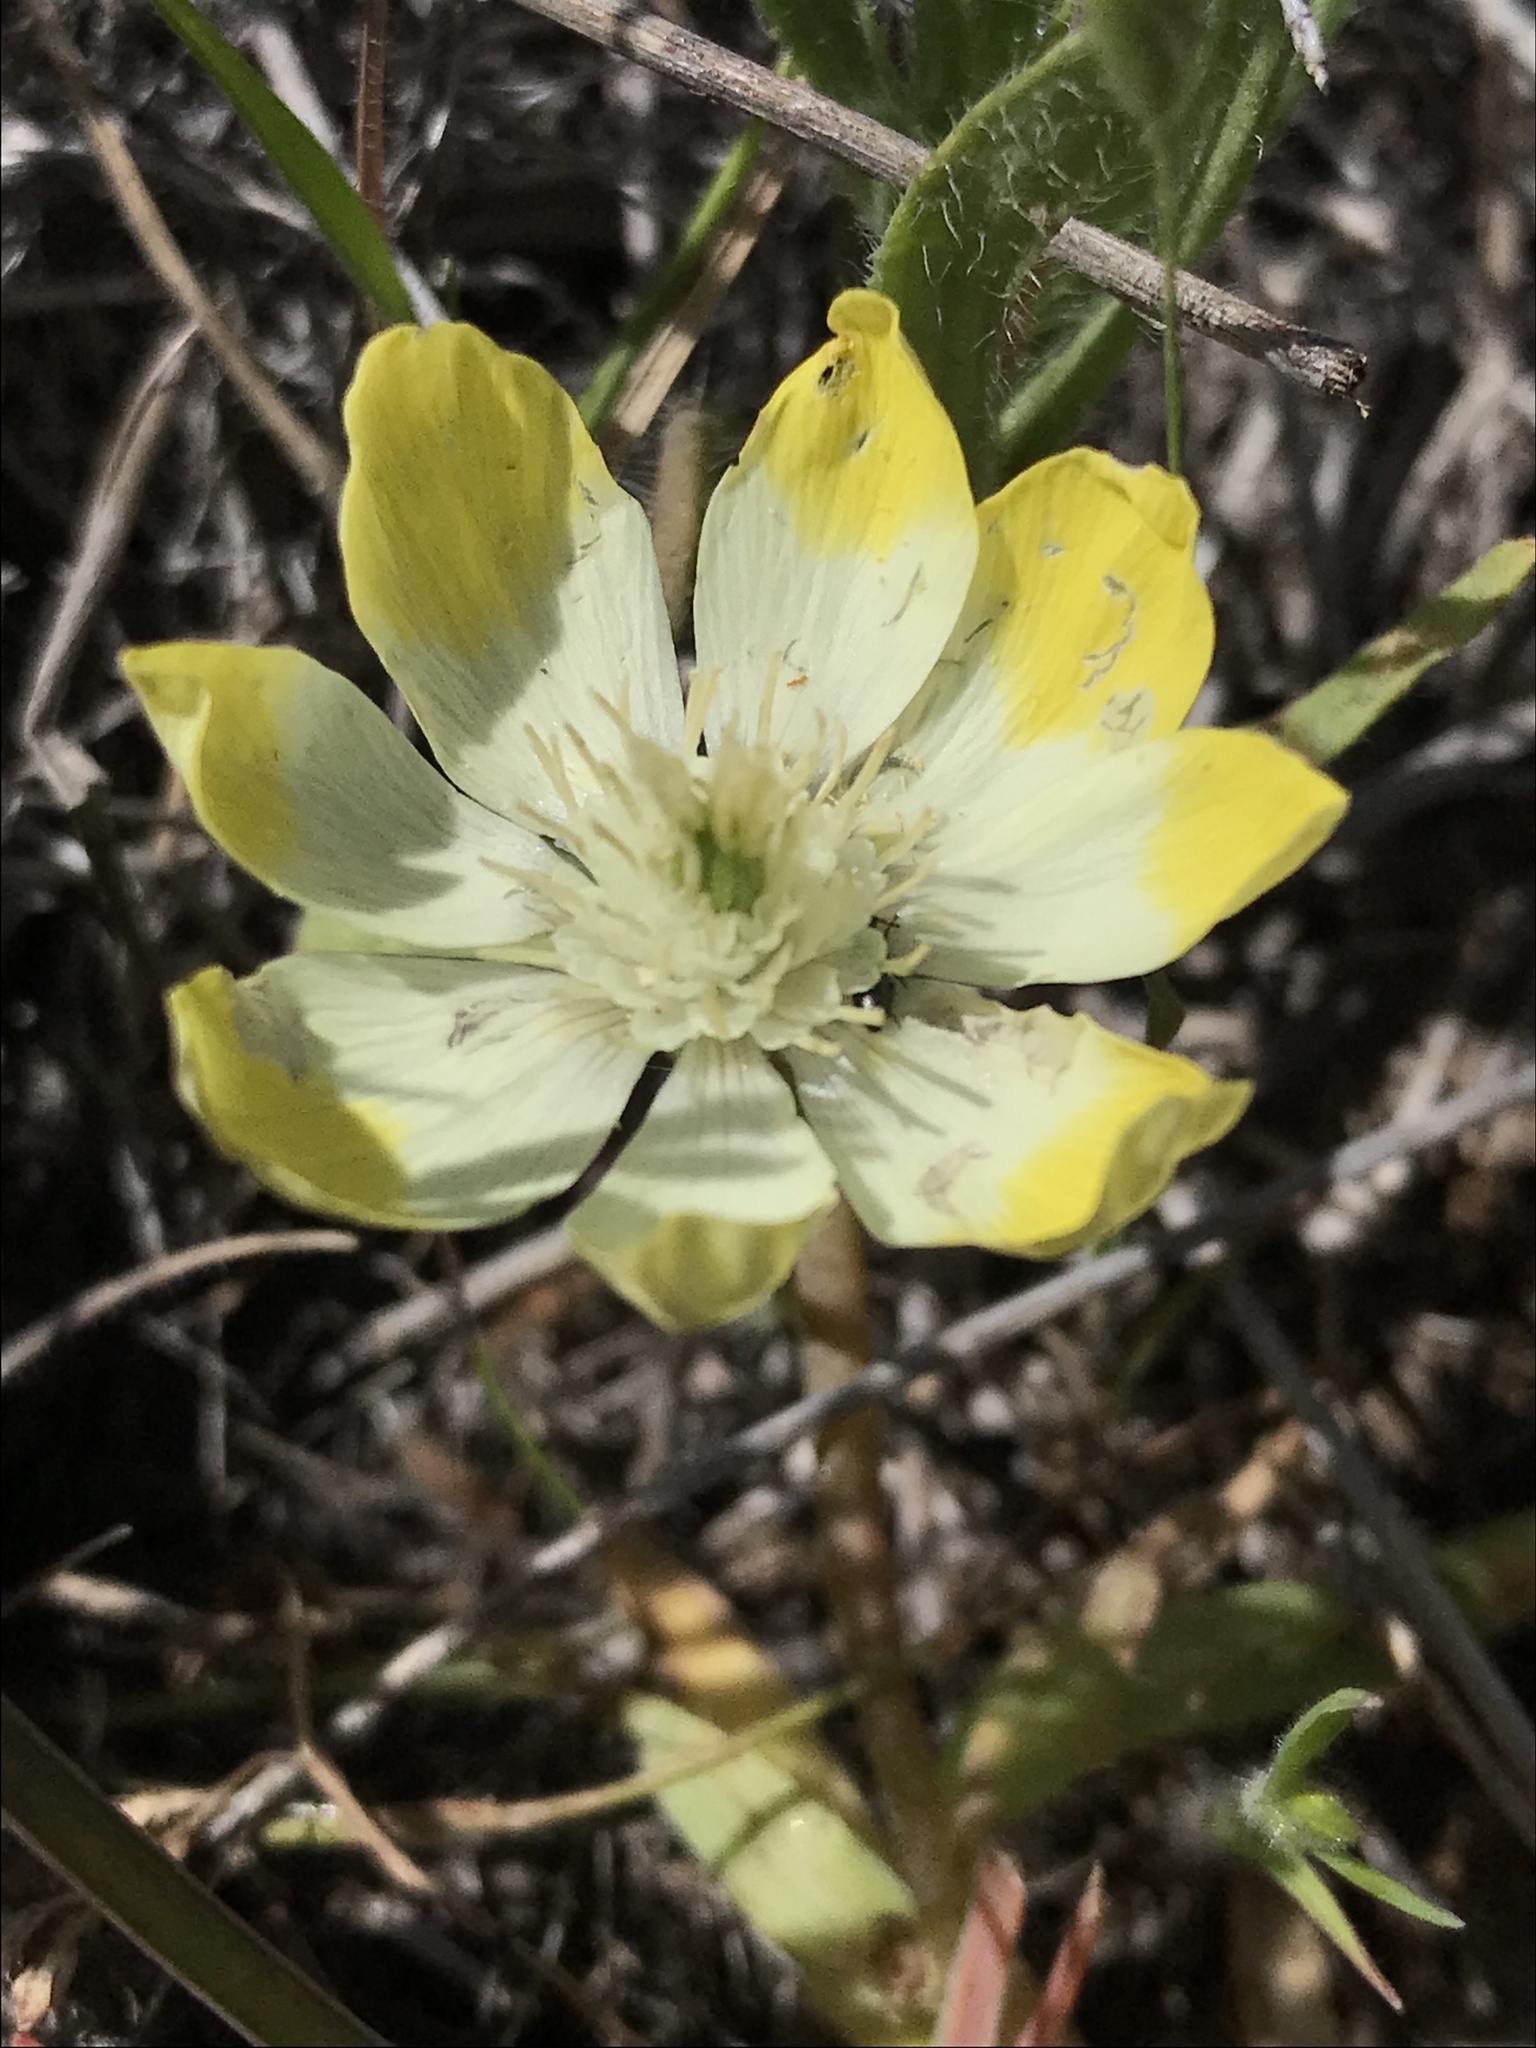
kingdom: Plantae
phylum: Tracheophyta
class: Magnoliopsida
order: Ranunculales
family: Papaveraceae
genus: Platystemon
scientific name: Platystemon californicus
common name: Cream-cups
